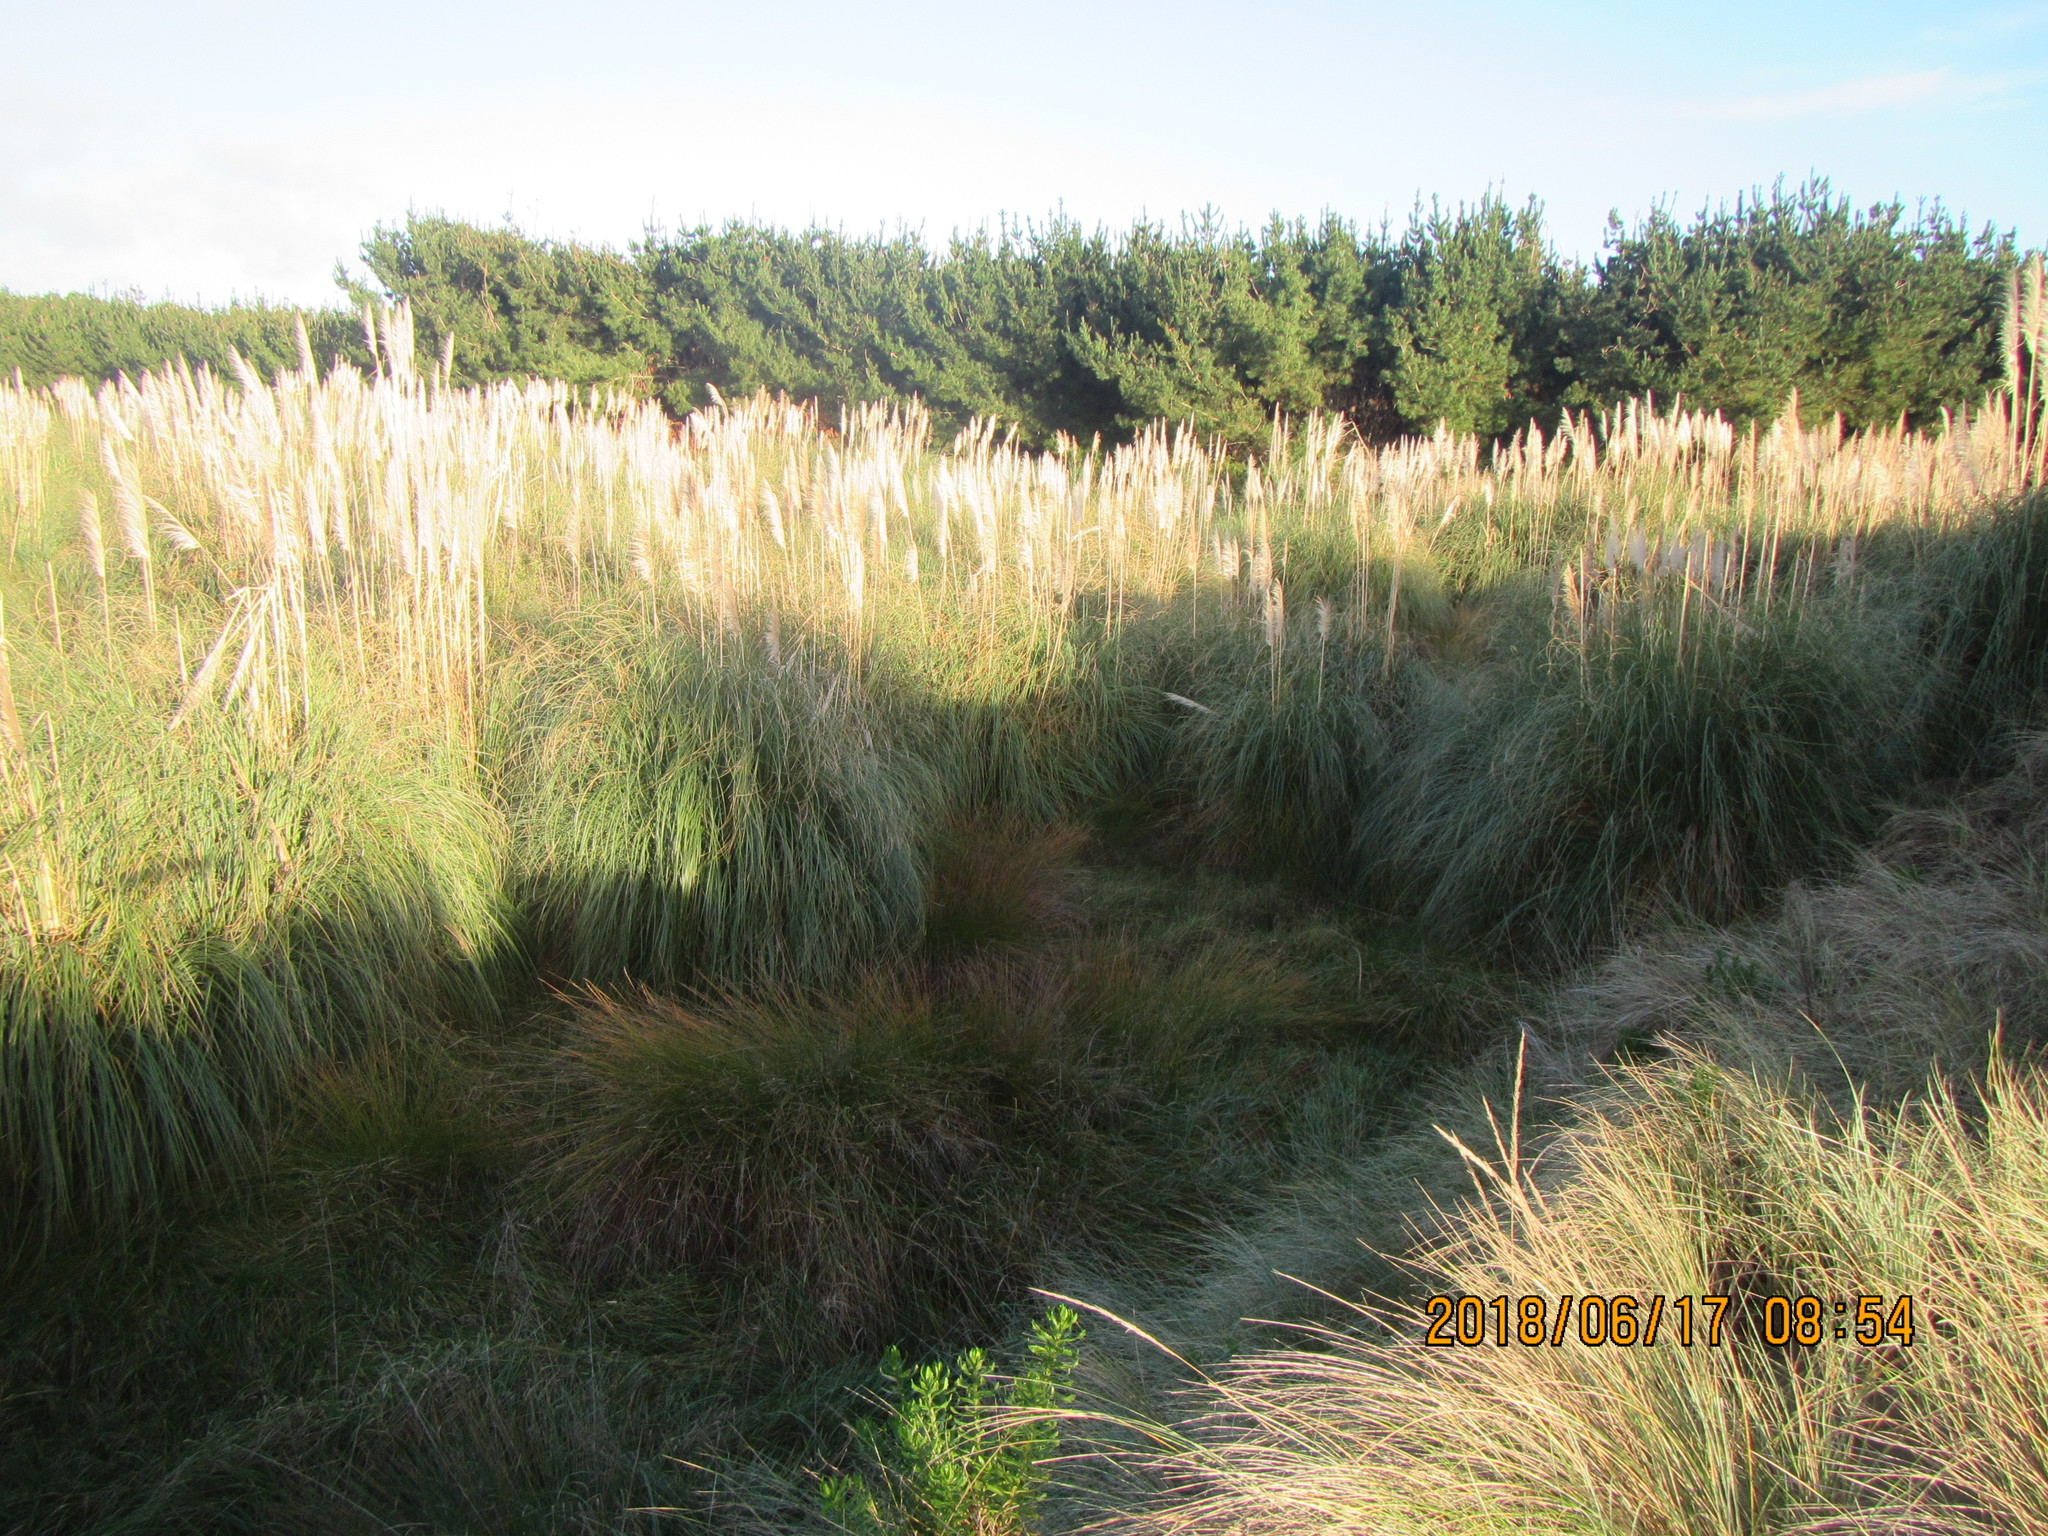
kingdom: Plantae
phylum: Tracheophyta
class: Liliopsida
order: Poales
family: Poaceae
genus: Cortaderia
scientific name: Cortaderia selloana
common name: Uruguayan pampas grass
